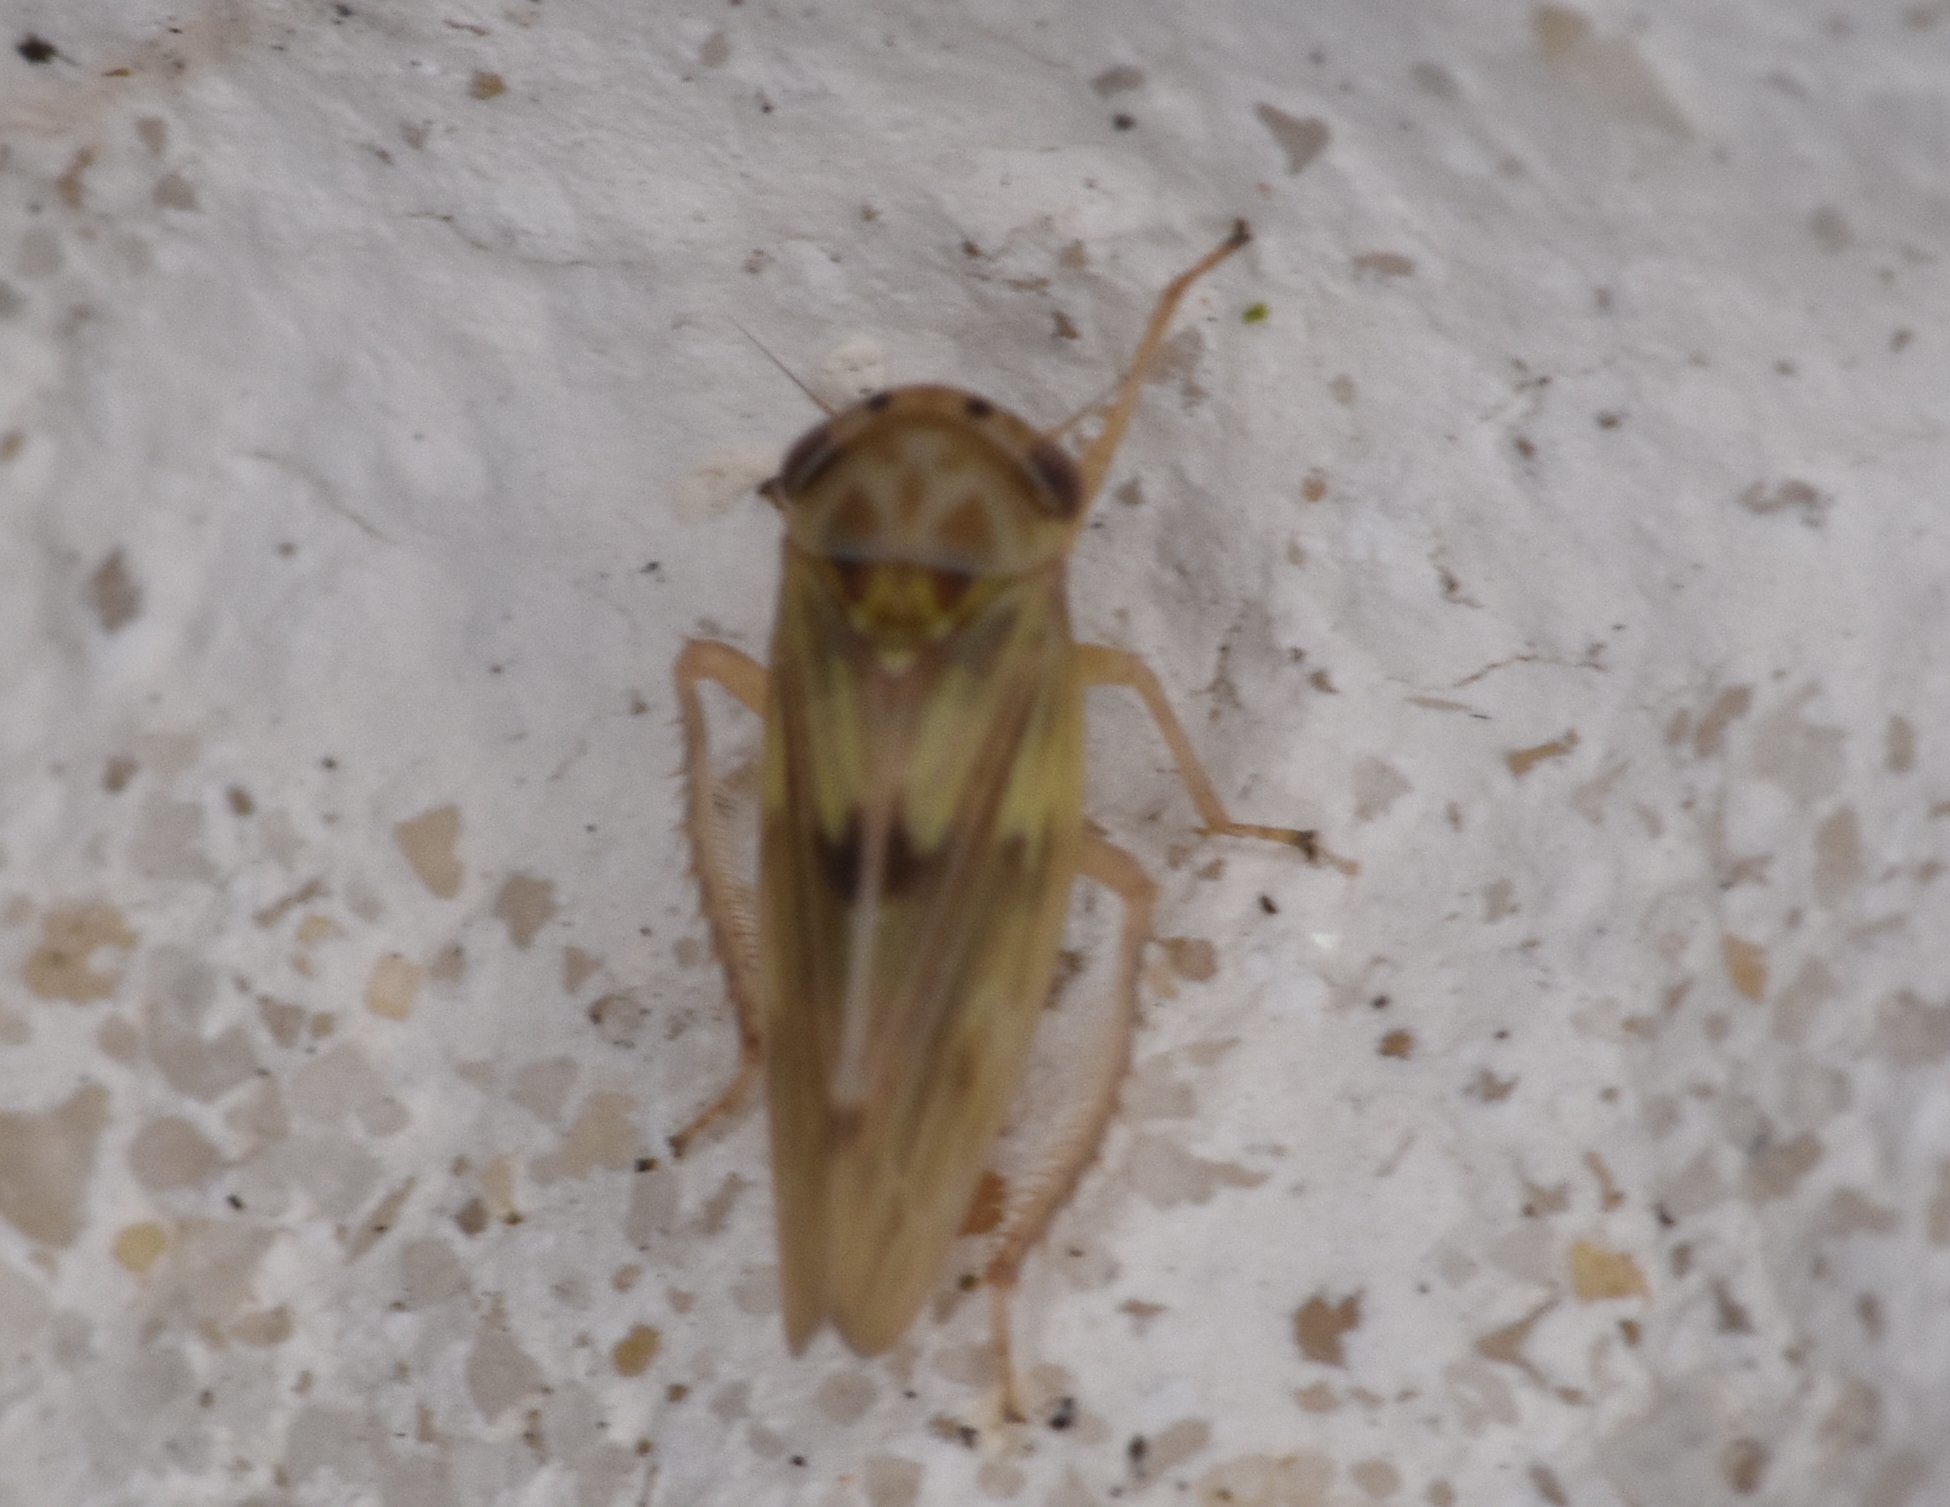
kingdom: Animalia
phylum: Arthropoda
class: Insecta
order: Hemiptera
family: Cicadellidae
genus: Agallia
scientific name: Agallia albidula
